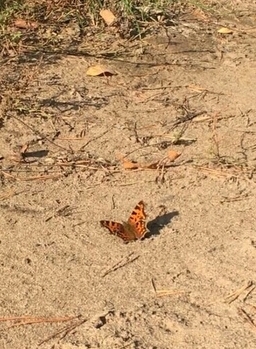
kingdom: Animalia
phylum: Arthropoda
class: Insecta
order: Lepidoptera
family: Nymphalidae
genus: Polygonia
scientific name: Polygonia c-album
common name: Comma
